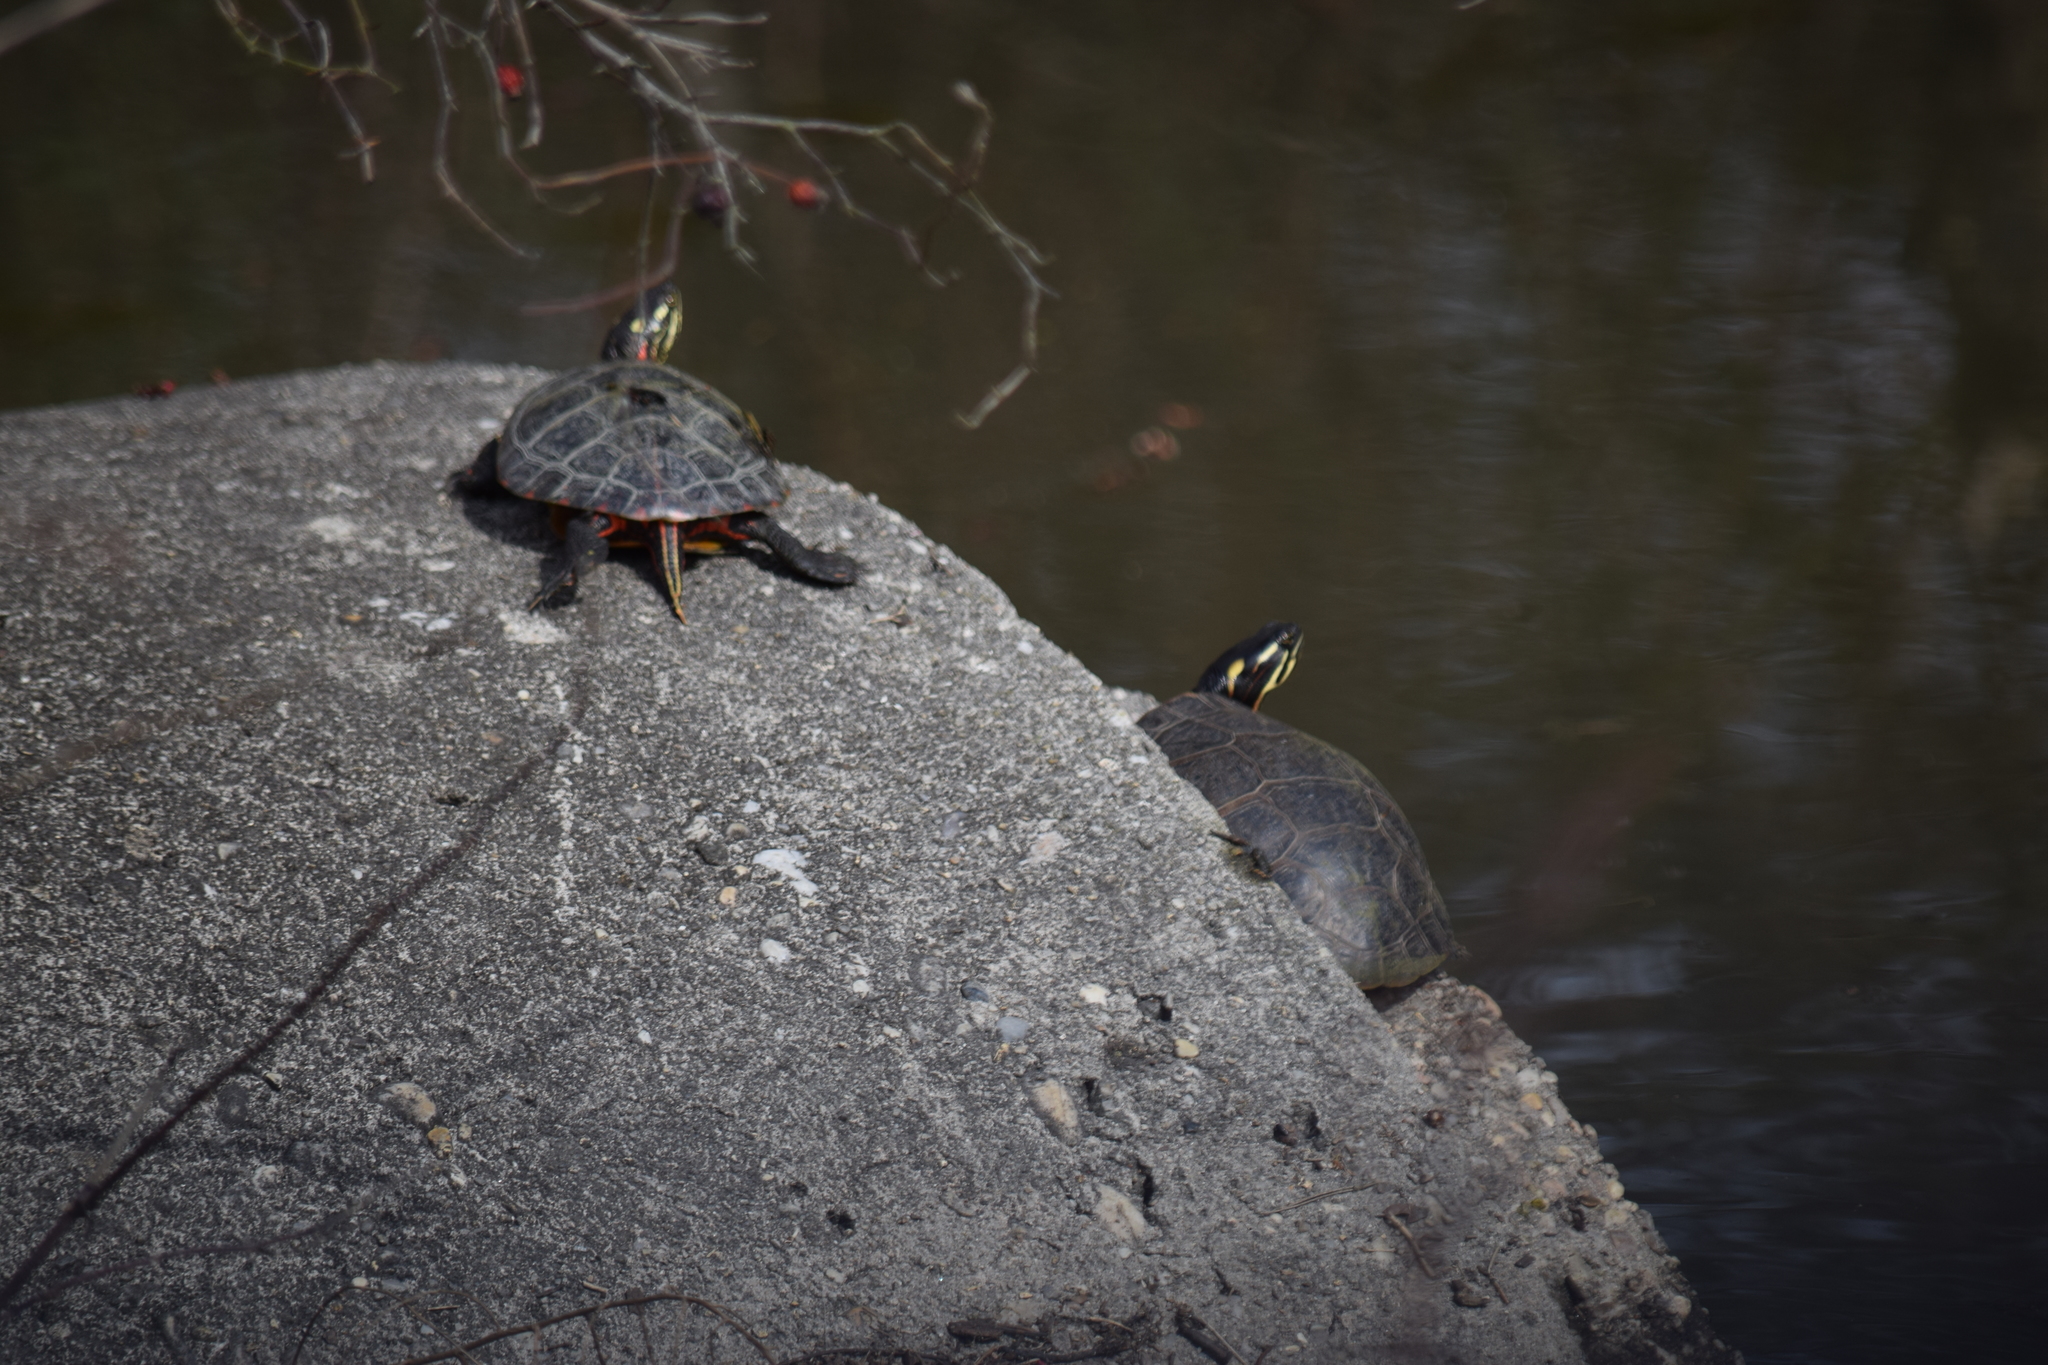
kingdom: Animalia
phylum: Chordata
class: Testudines
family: Emydidae
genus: Chrysemys
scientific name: Chrysemys picta
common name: Painted turtle
